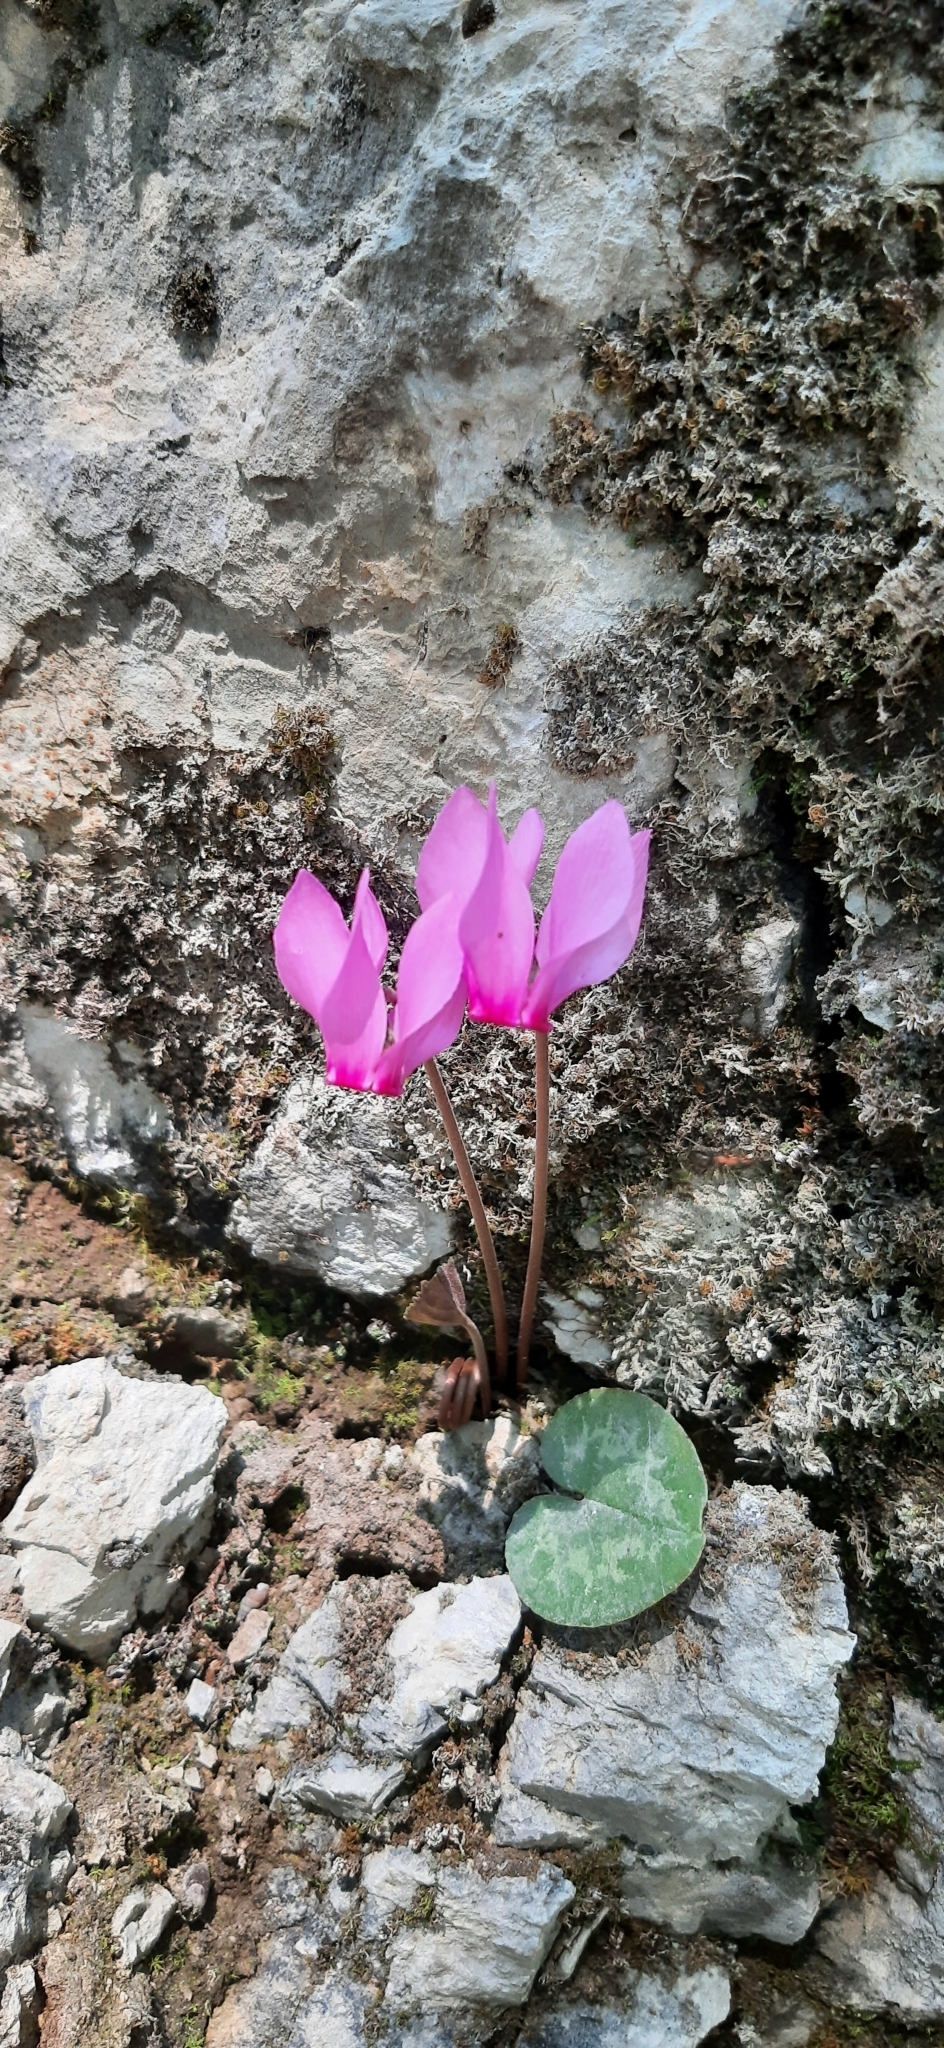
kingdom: Plantae
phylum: Tracheophyta
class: Magnoliopsida
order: Ericales
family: Primulaceae
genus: Cyclamen
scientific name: Cyclamen purpurascens
